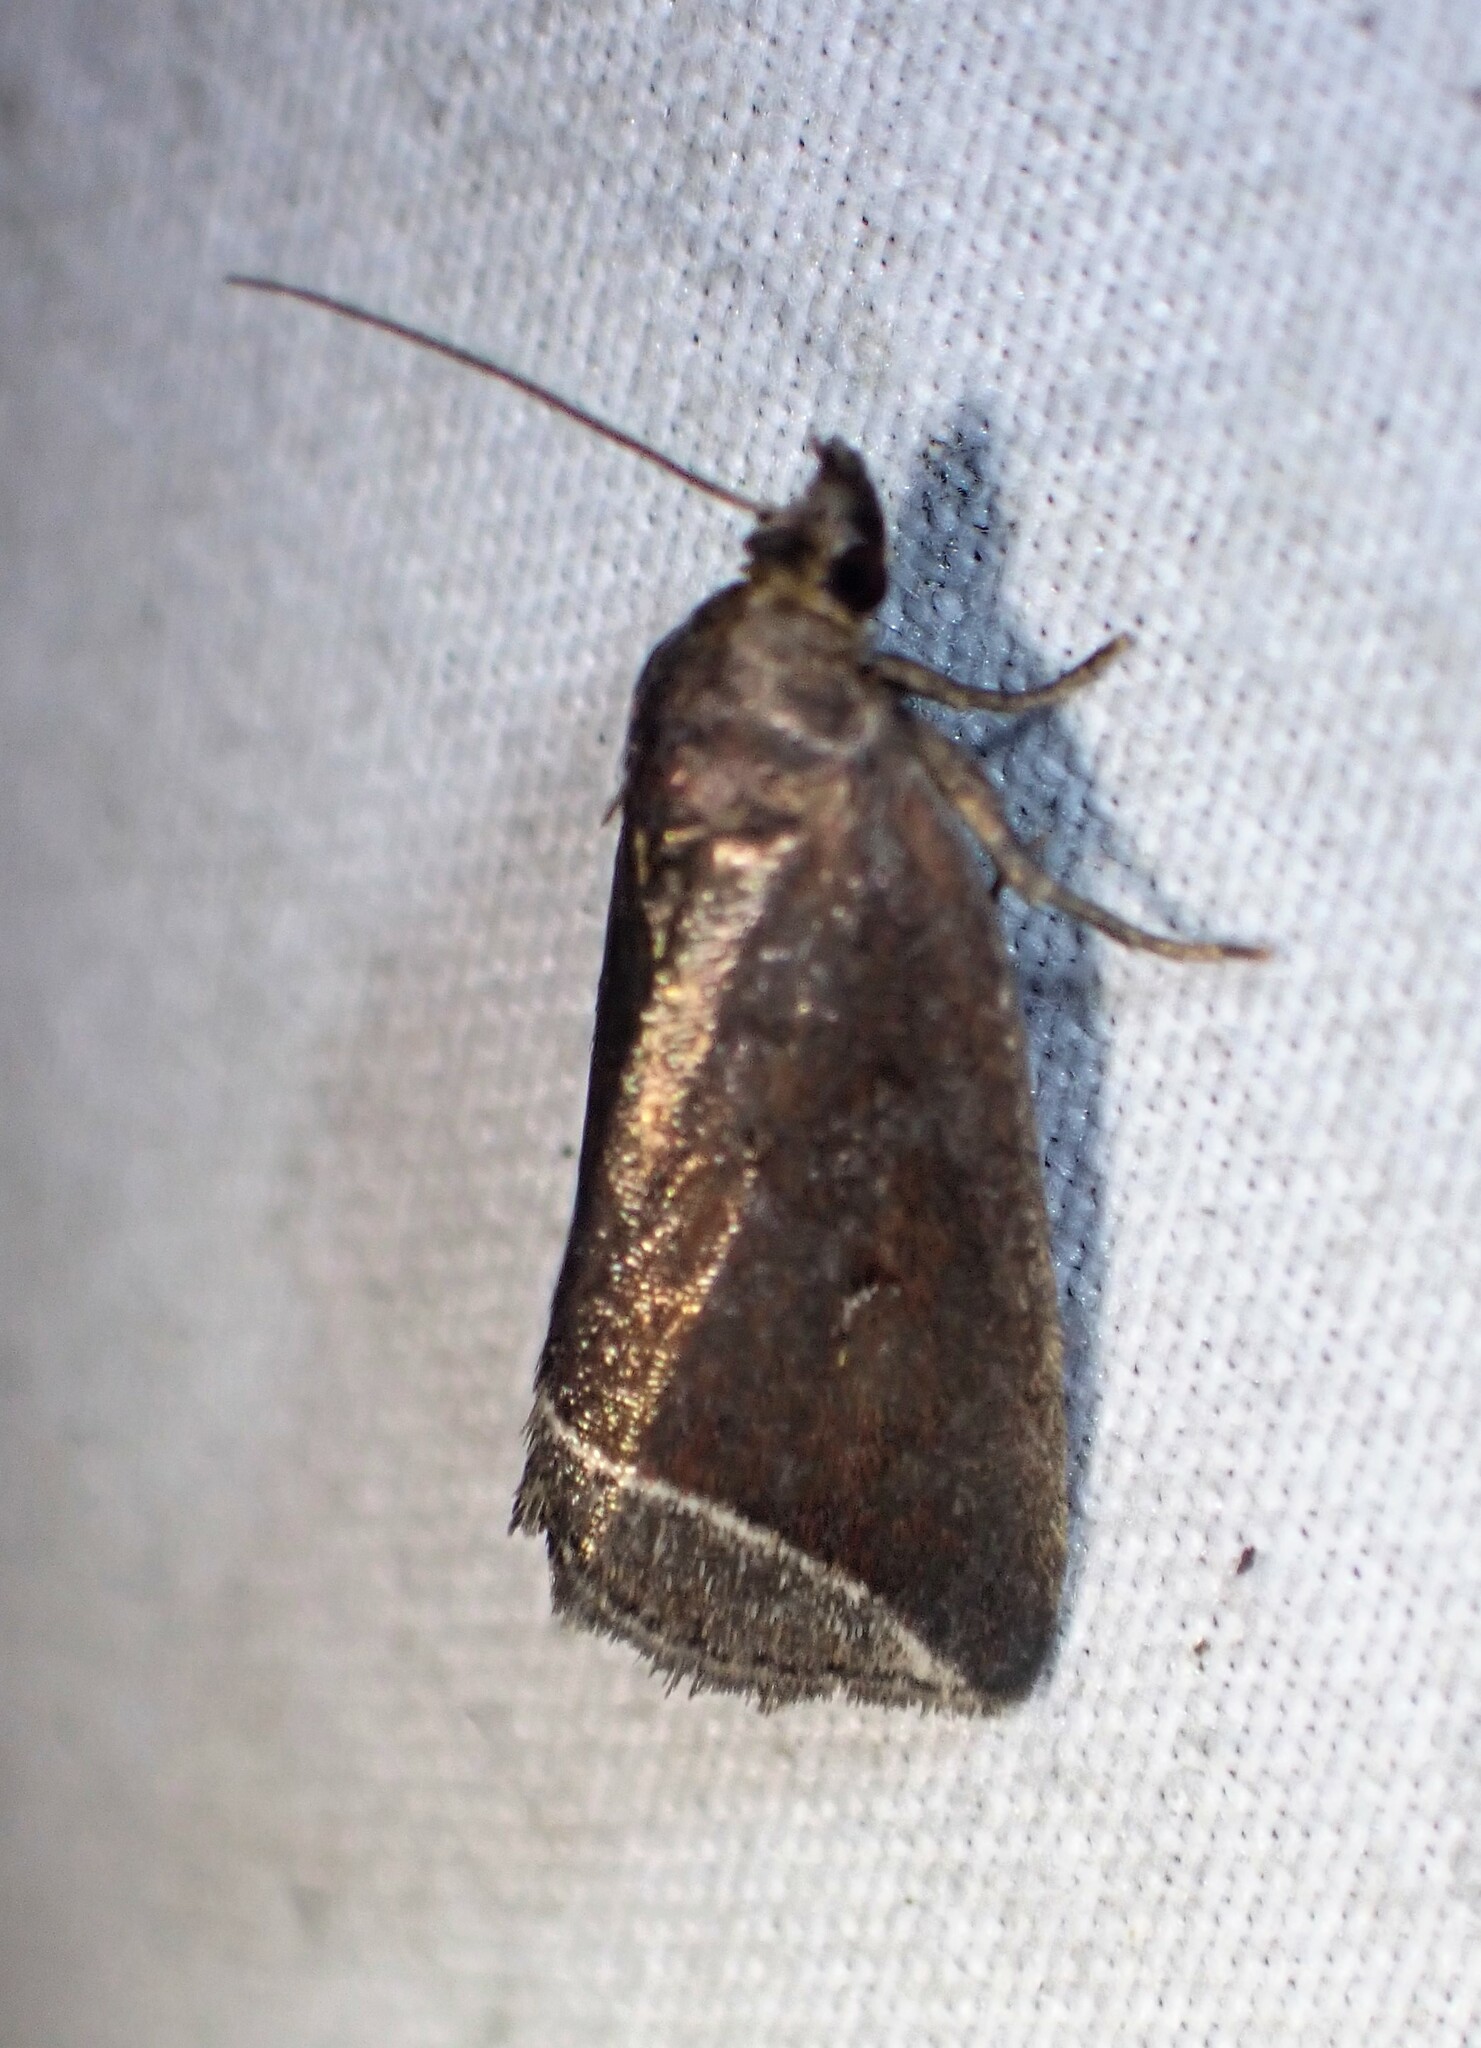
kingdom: Animalia
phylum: Arthropoda
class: Insecta
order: Lepidoptera
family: Erebidae
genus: Capis
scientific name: Capis curvata
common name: Curved halter moth
